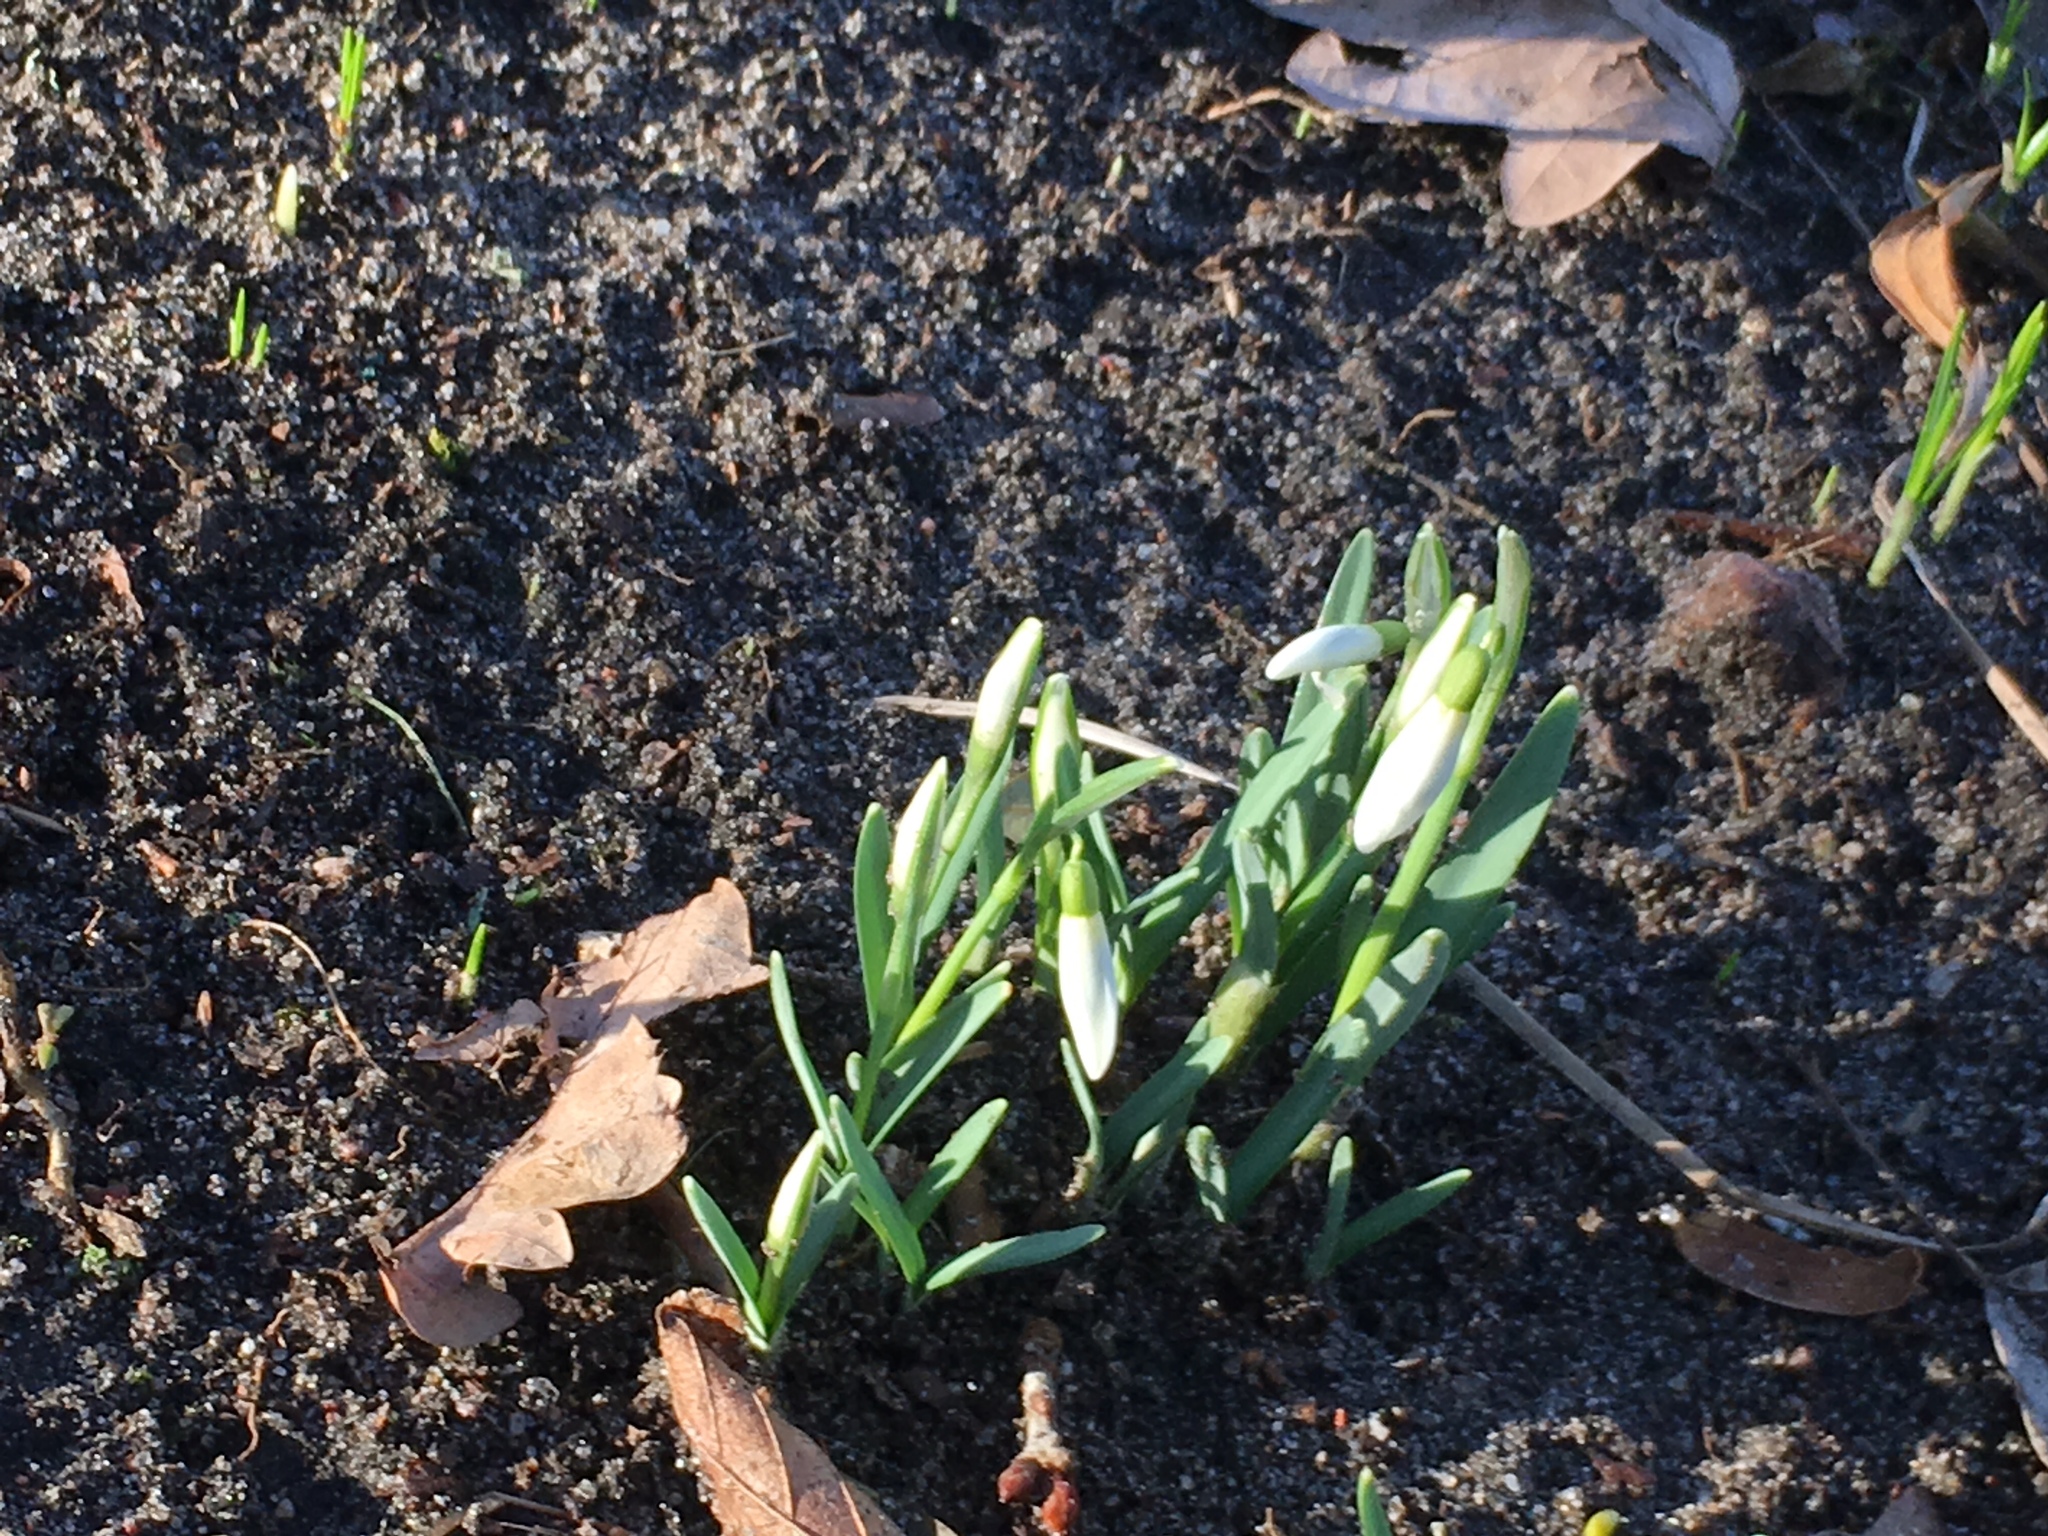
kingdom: Plantae
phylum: Tracheophyta
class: Liliopsida
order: Asparagales
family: Amaryllidaceae
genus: Galanthus
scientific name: Galanthus nivalis
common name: Snowdrop
